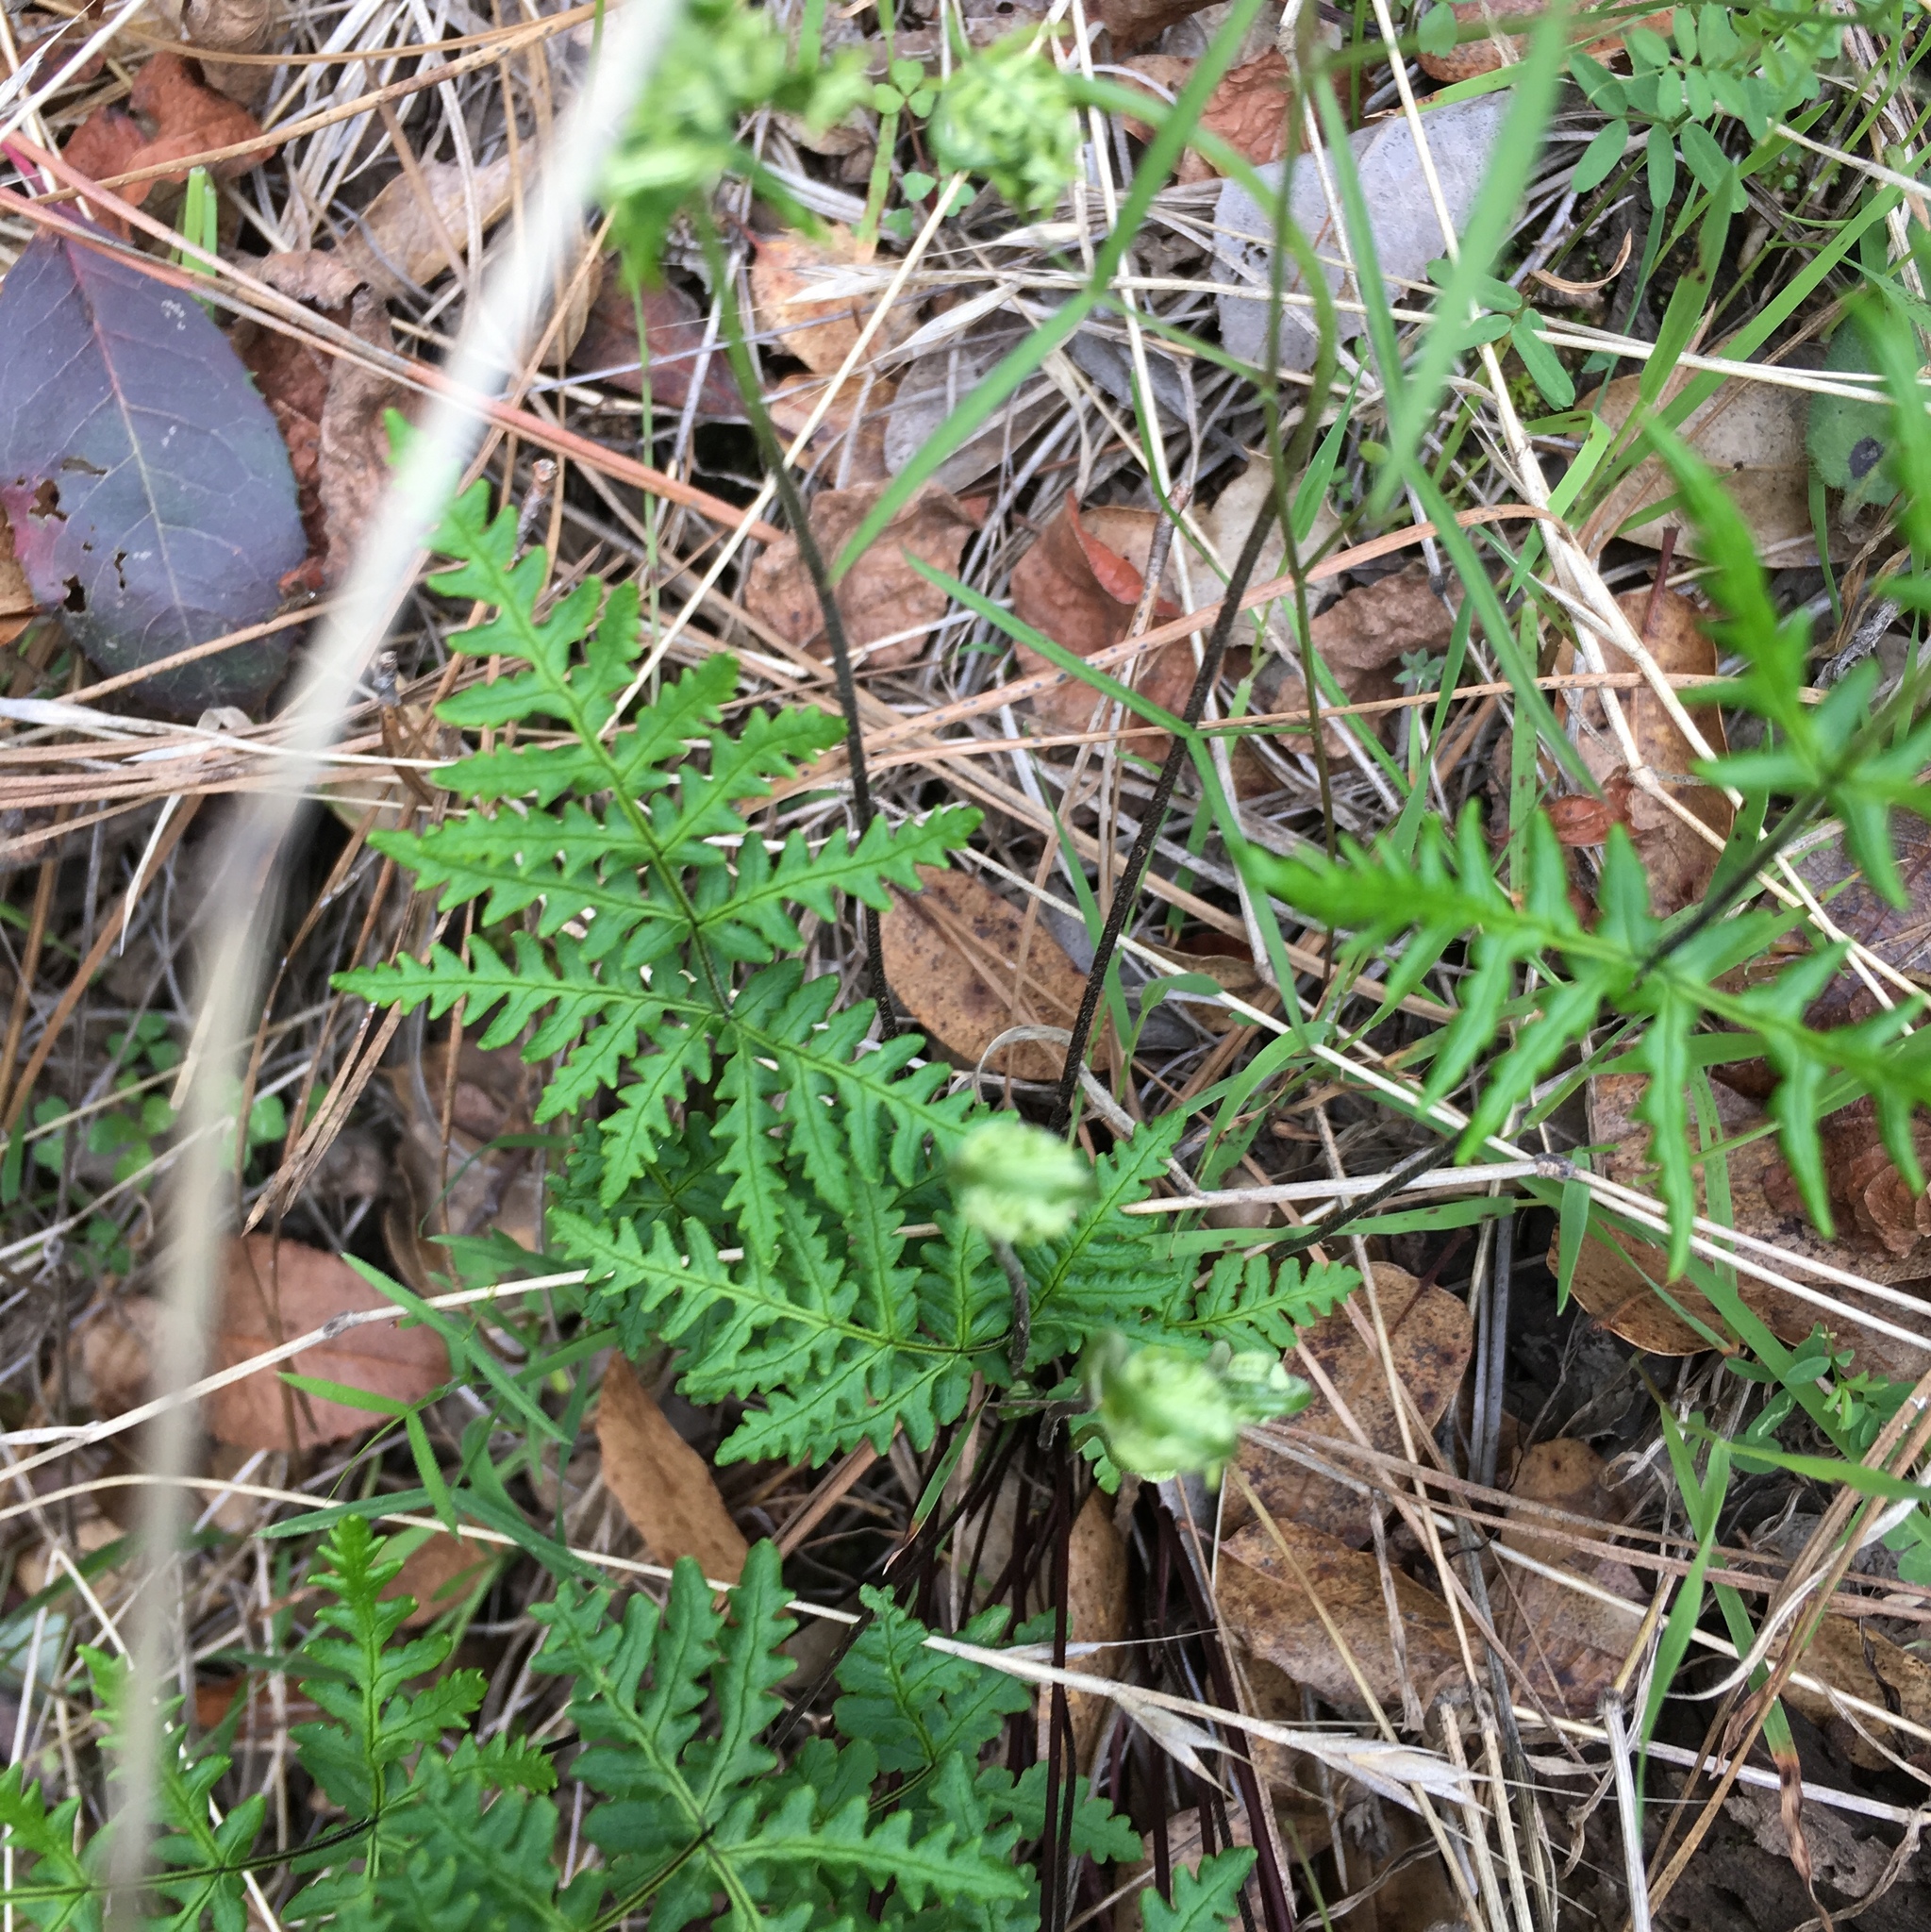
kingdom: Plantae
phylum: Tracheophyta
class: Polypodiopsida
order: Polypodiales
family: Pteridaceae
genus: Pentagramma
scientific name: Pentagramma triangularis
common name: Gold fern
